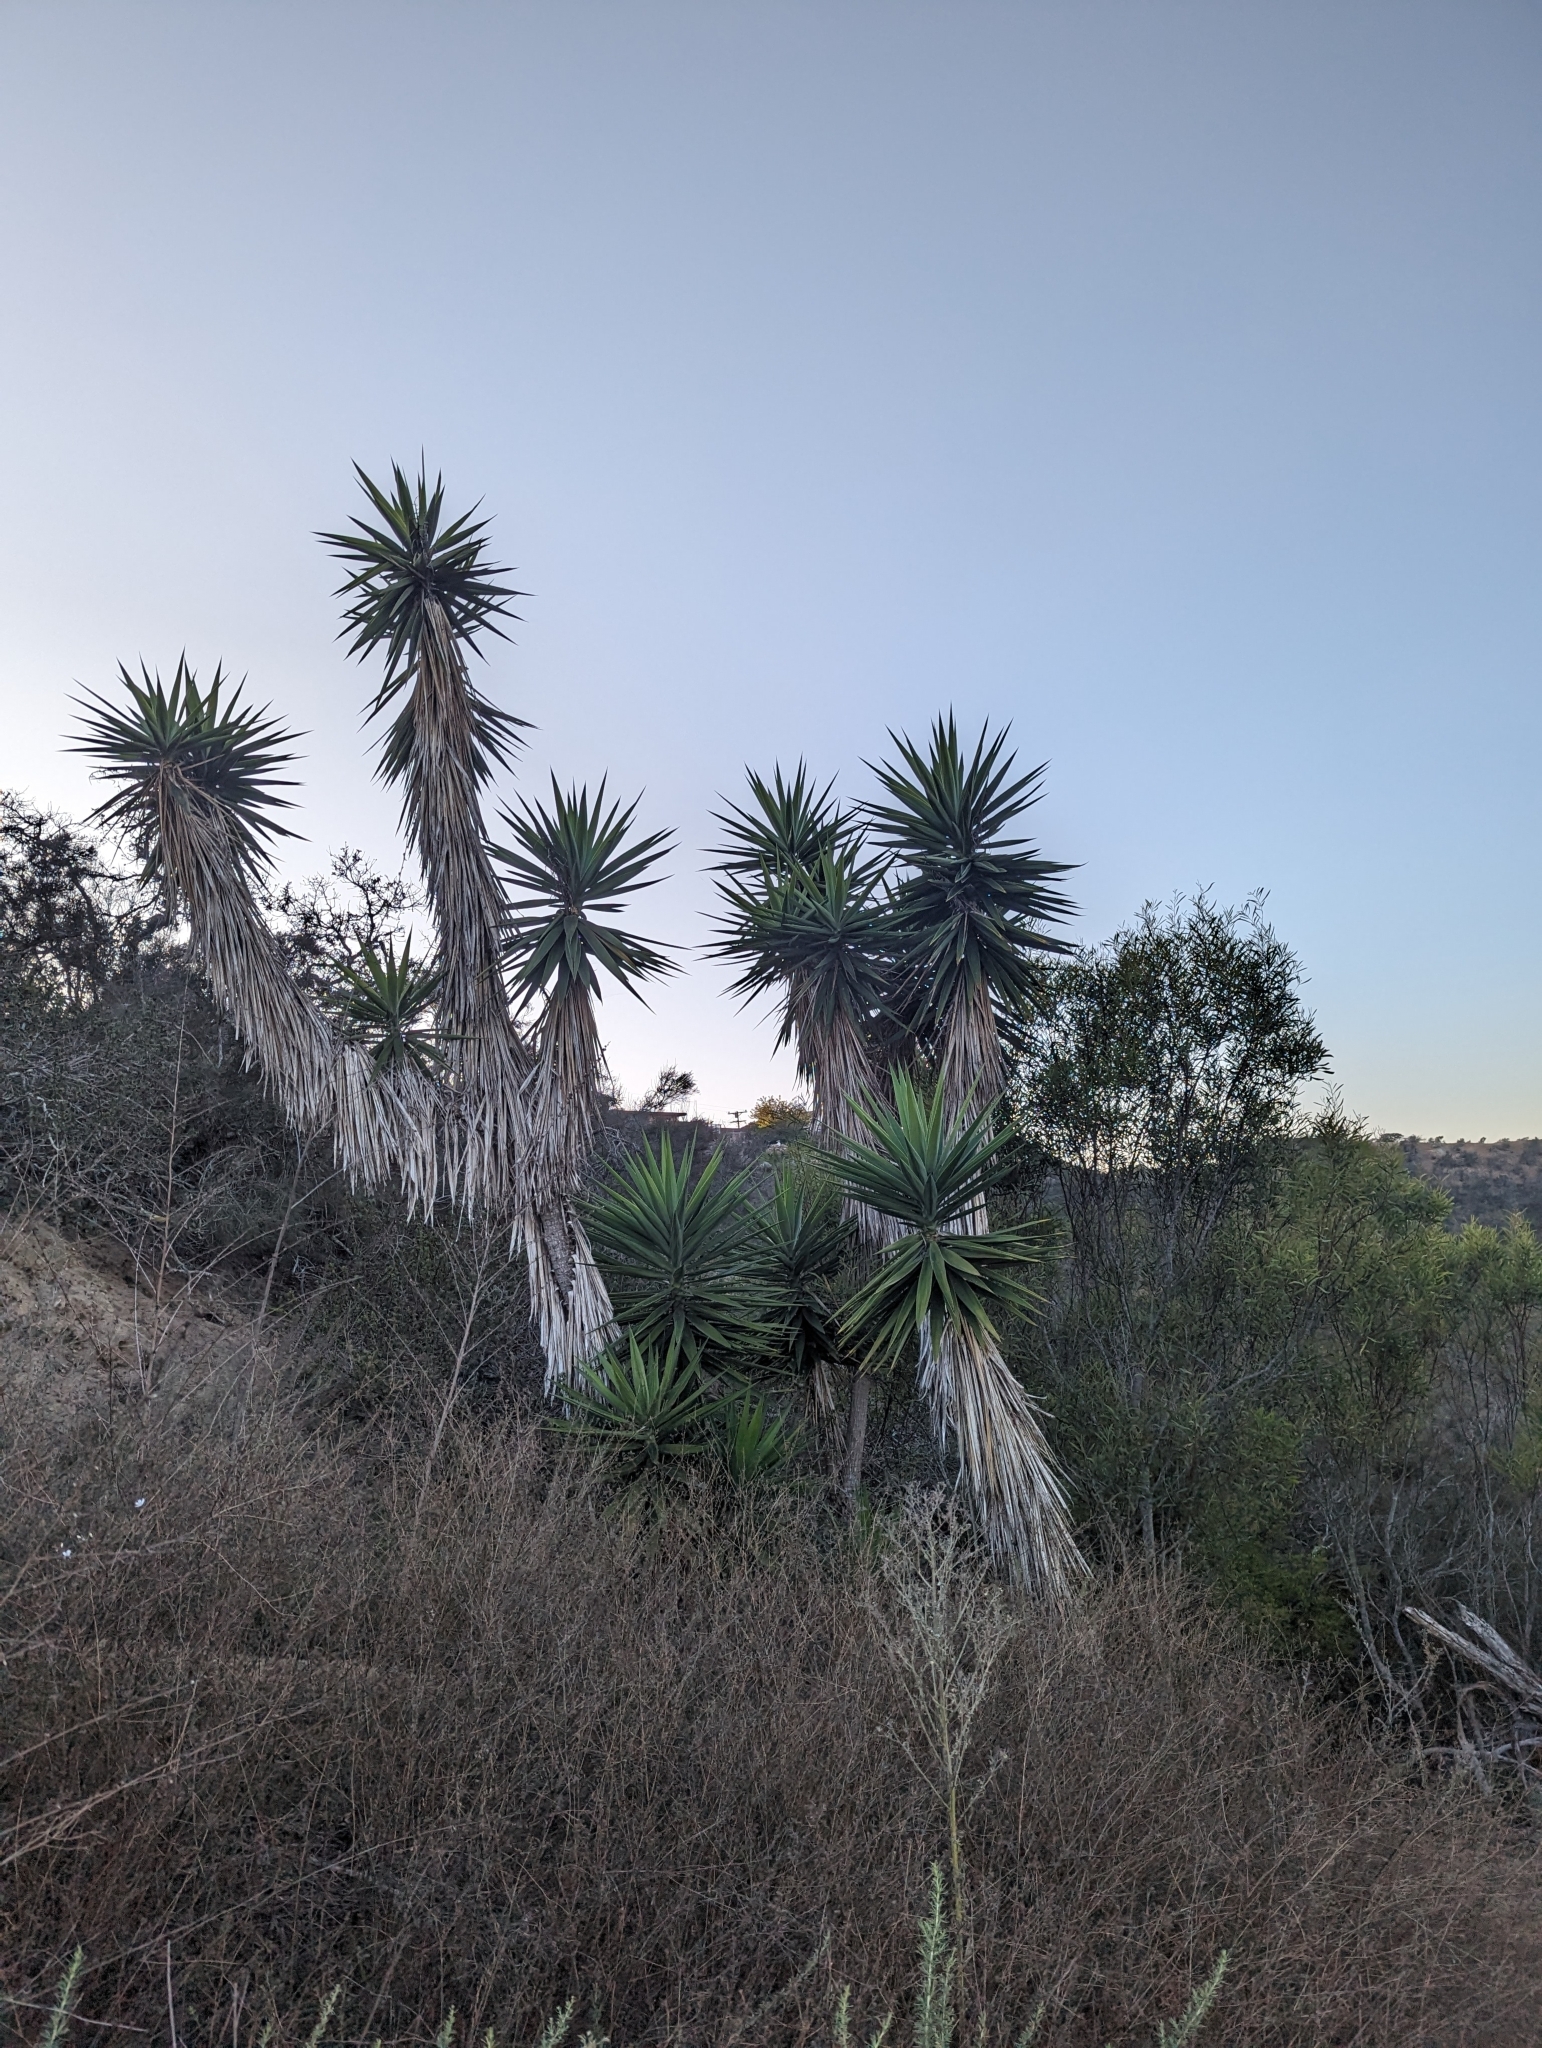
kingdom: Plantae
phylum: Tracheophyta
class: Liliopsida
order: Asparagales
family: Asparagaceae
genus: Yucca
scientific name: Yucca gigantea
